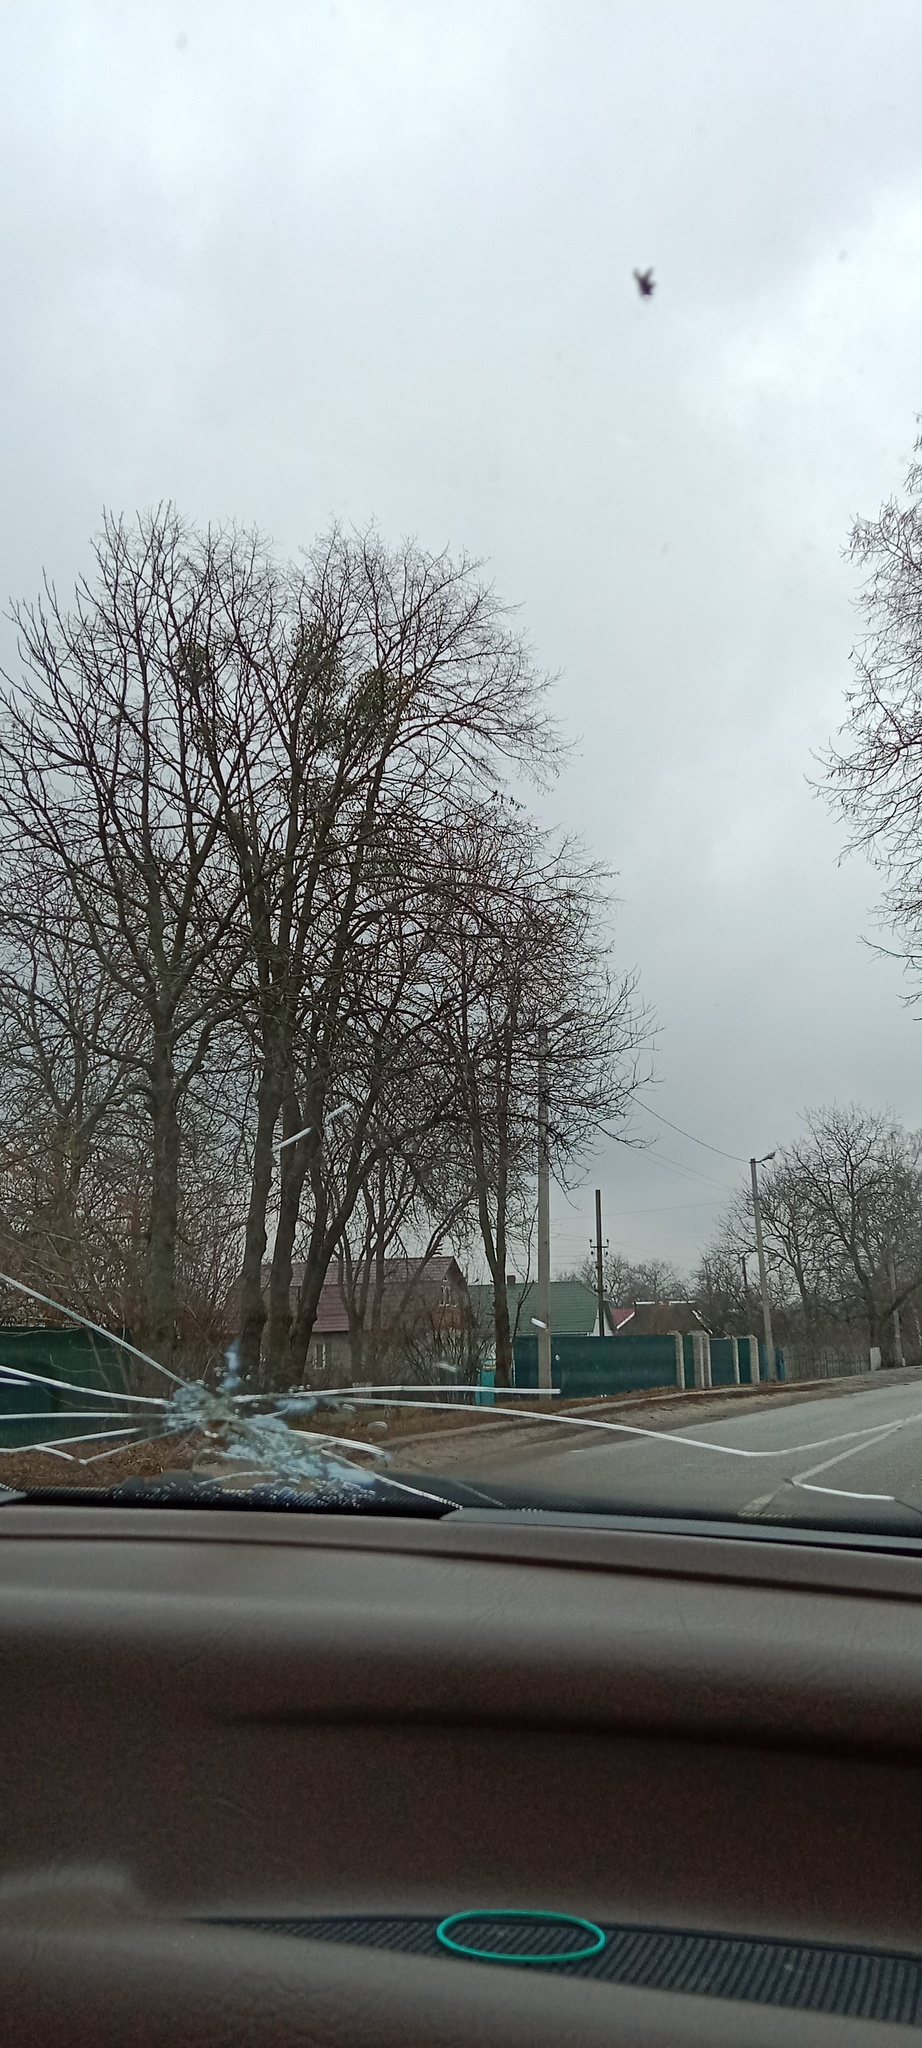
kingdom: Plantae
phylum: Tracheophyta
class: Magnoliopsida
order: Santalales
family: Viscaceae
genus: Viscum
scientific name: Viscum album
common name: Mistletoe
